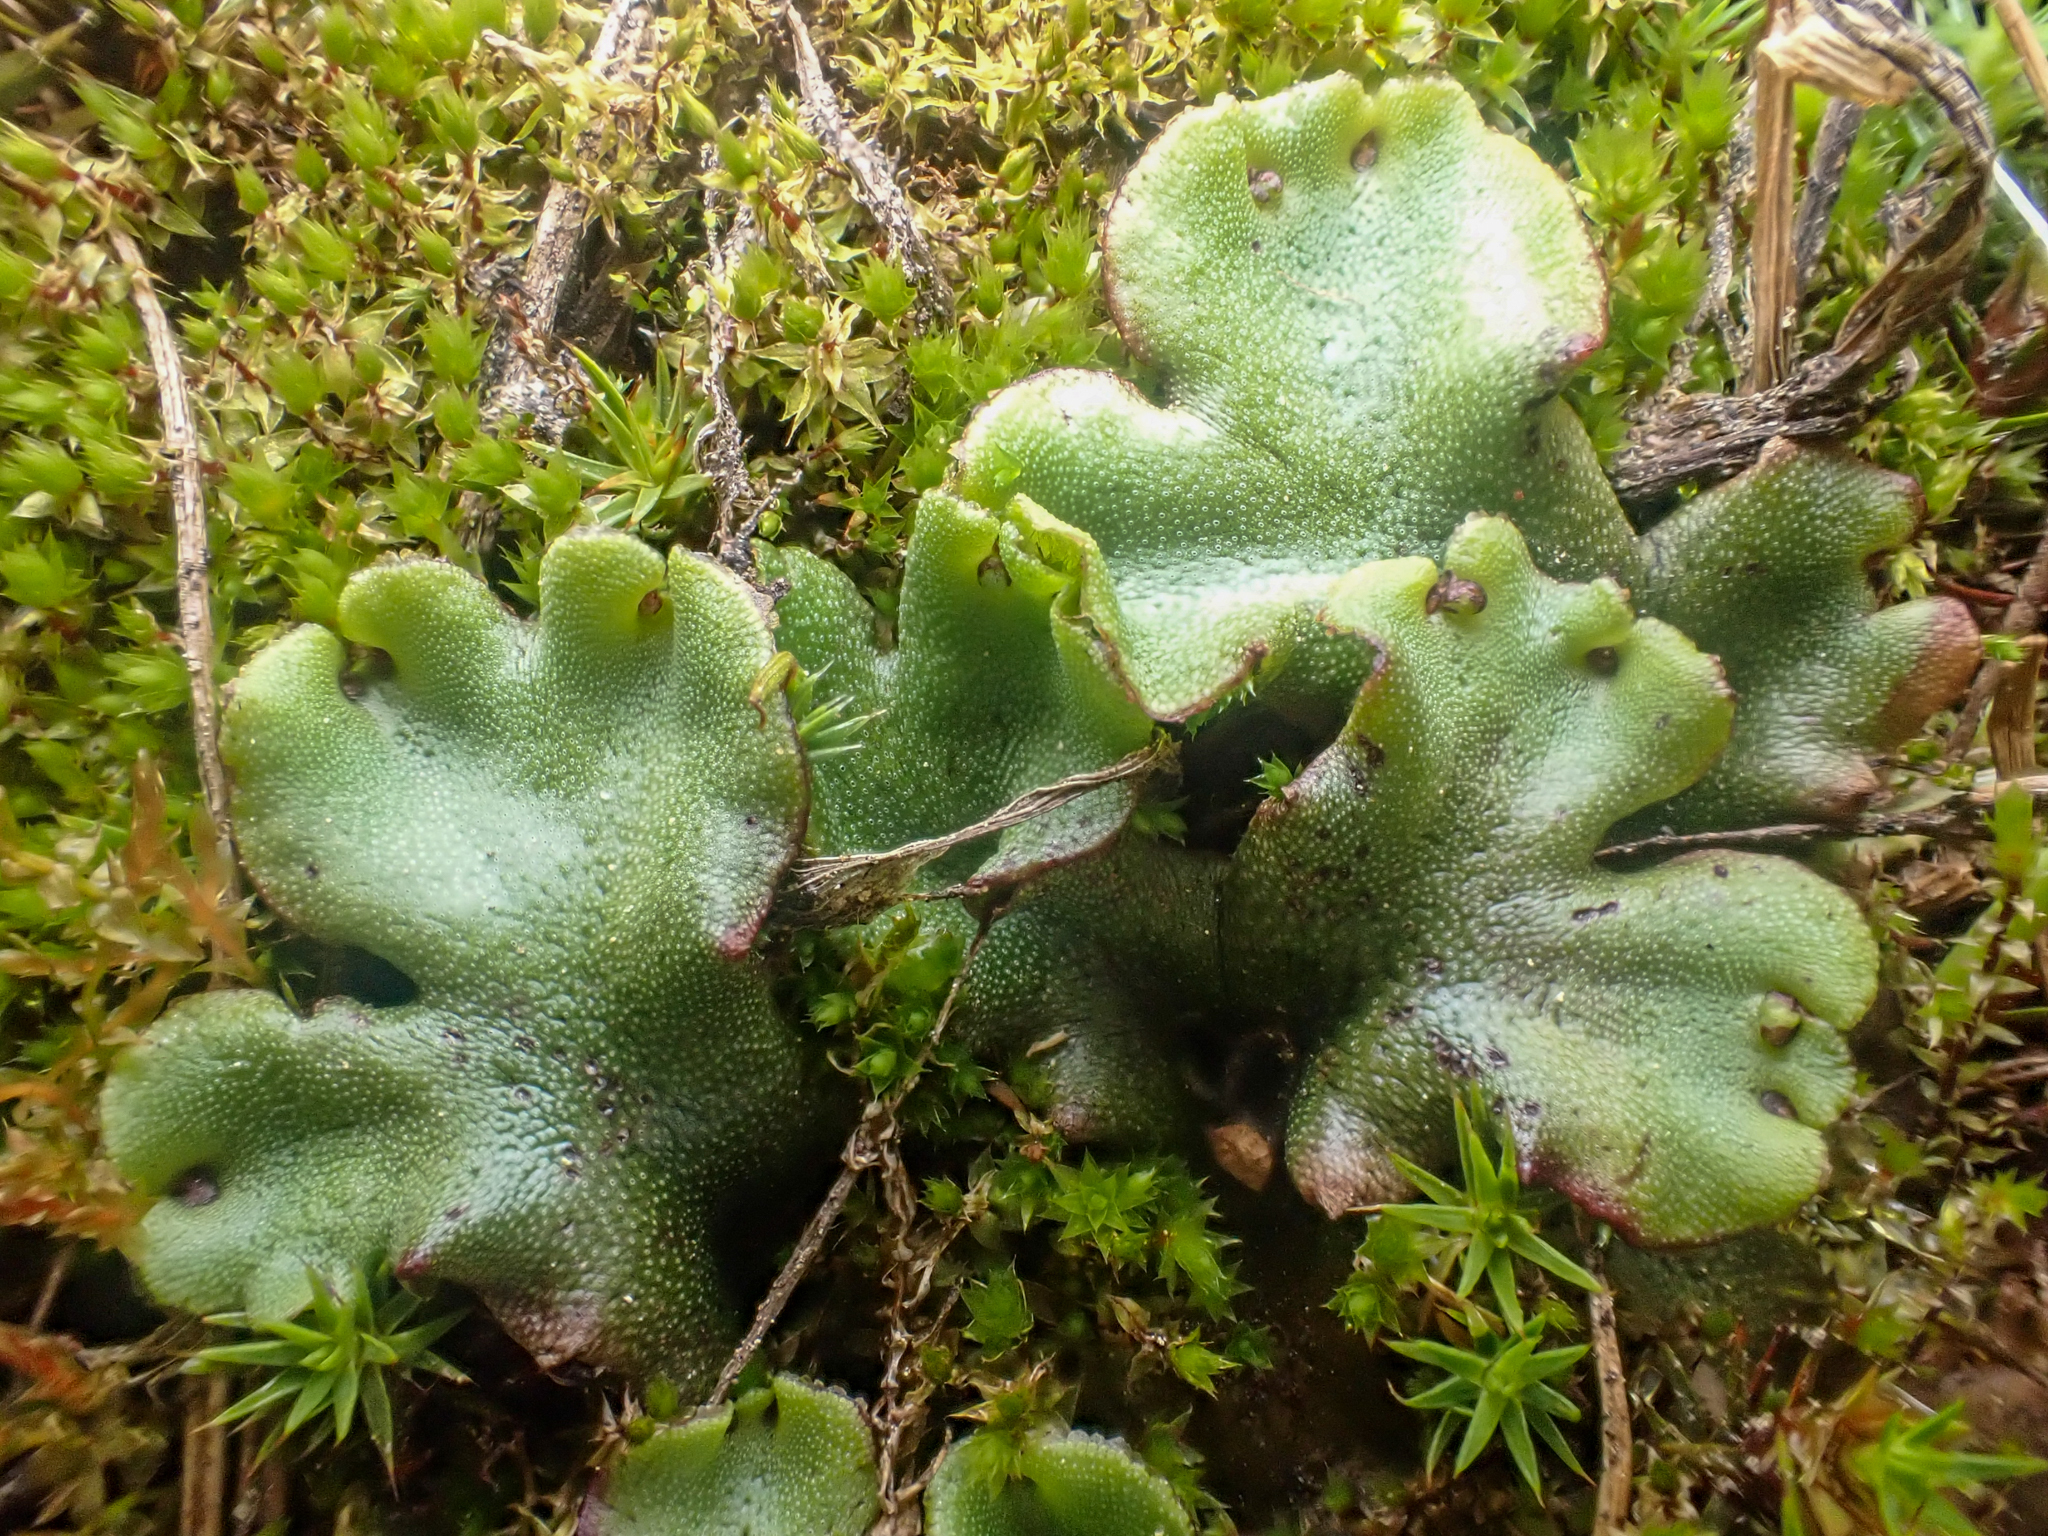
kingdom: Plantae
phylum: Marchantiophyta
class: Marchantiopsida
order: Marchantiales
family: Marchantiaceae
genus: Marchantia
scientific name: Marchantia polymorpha
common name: Common liverwort
